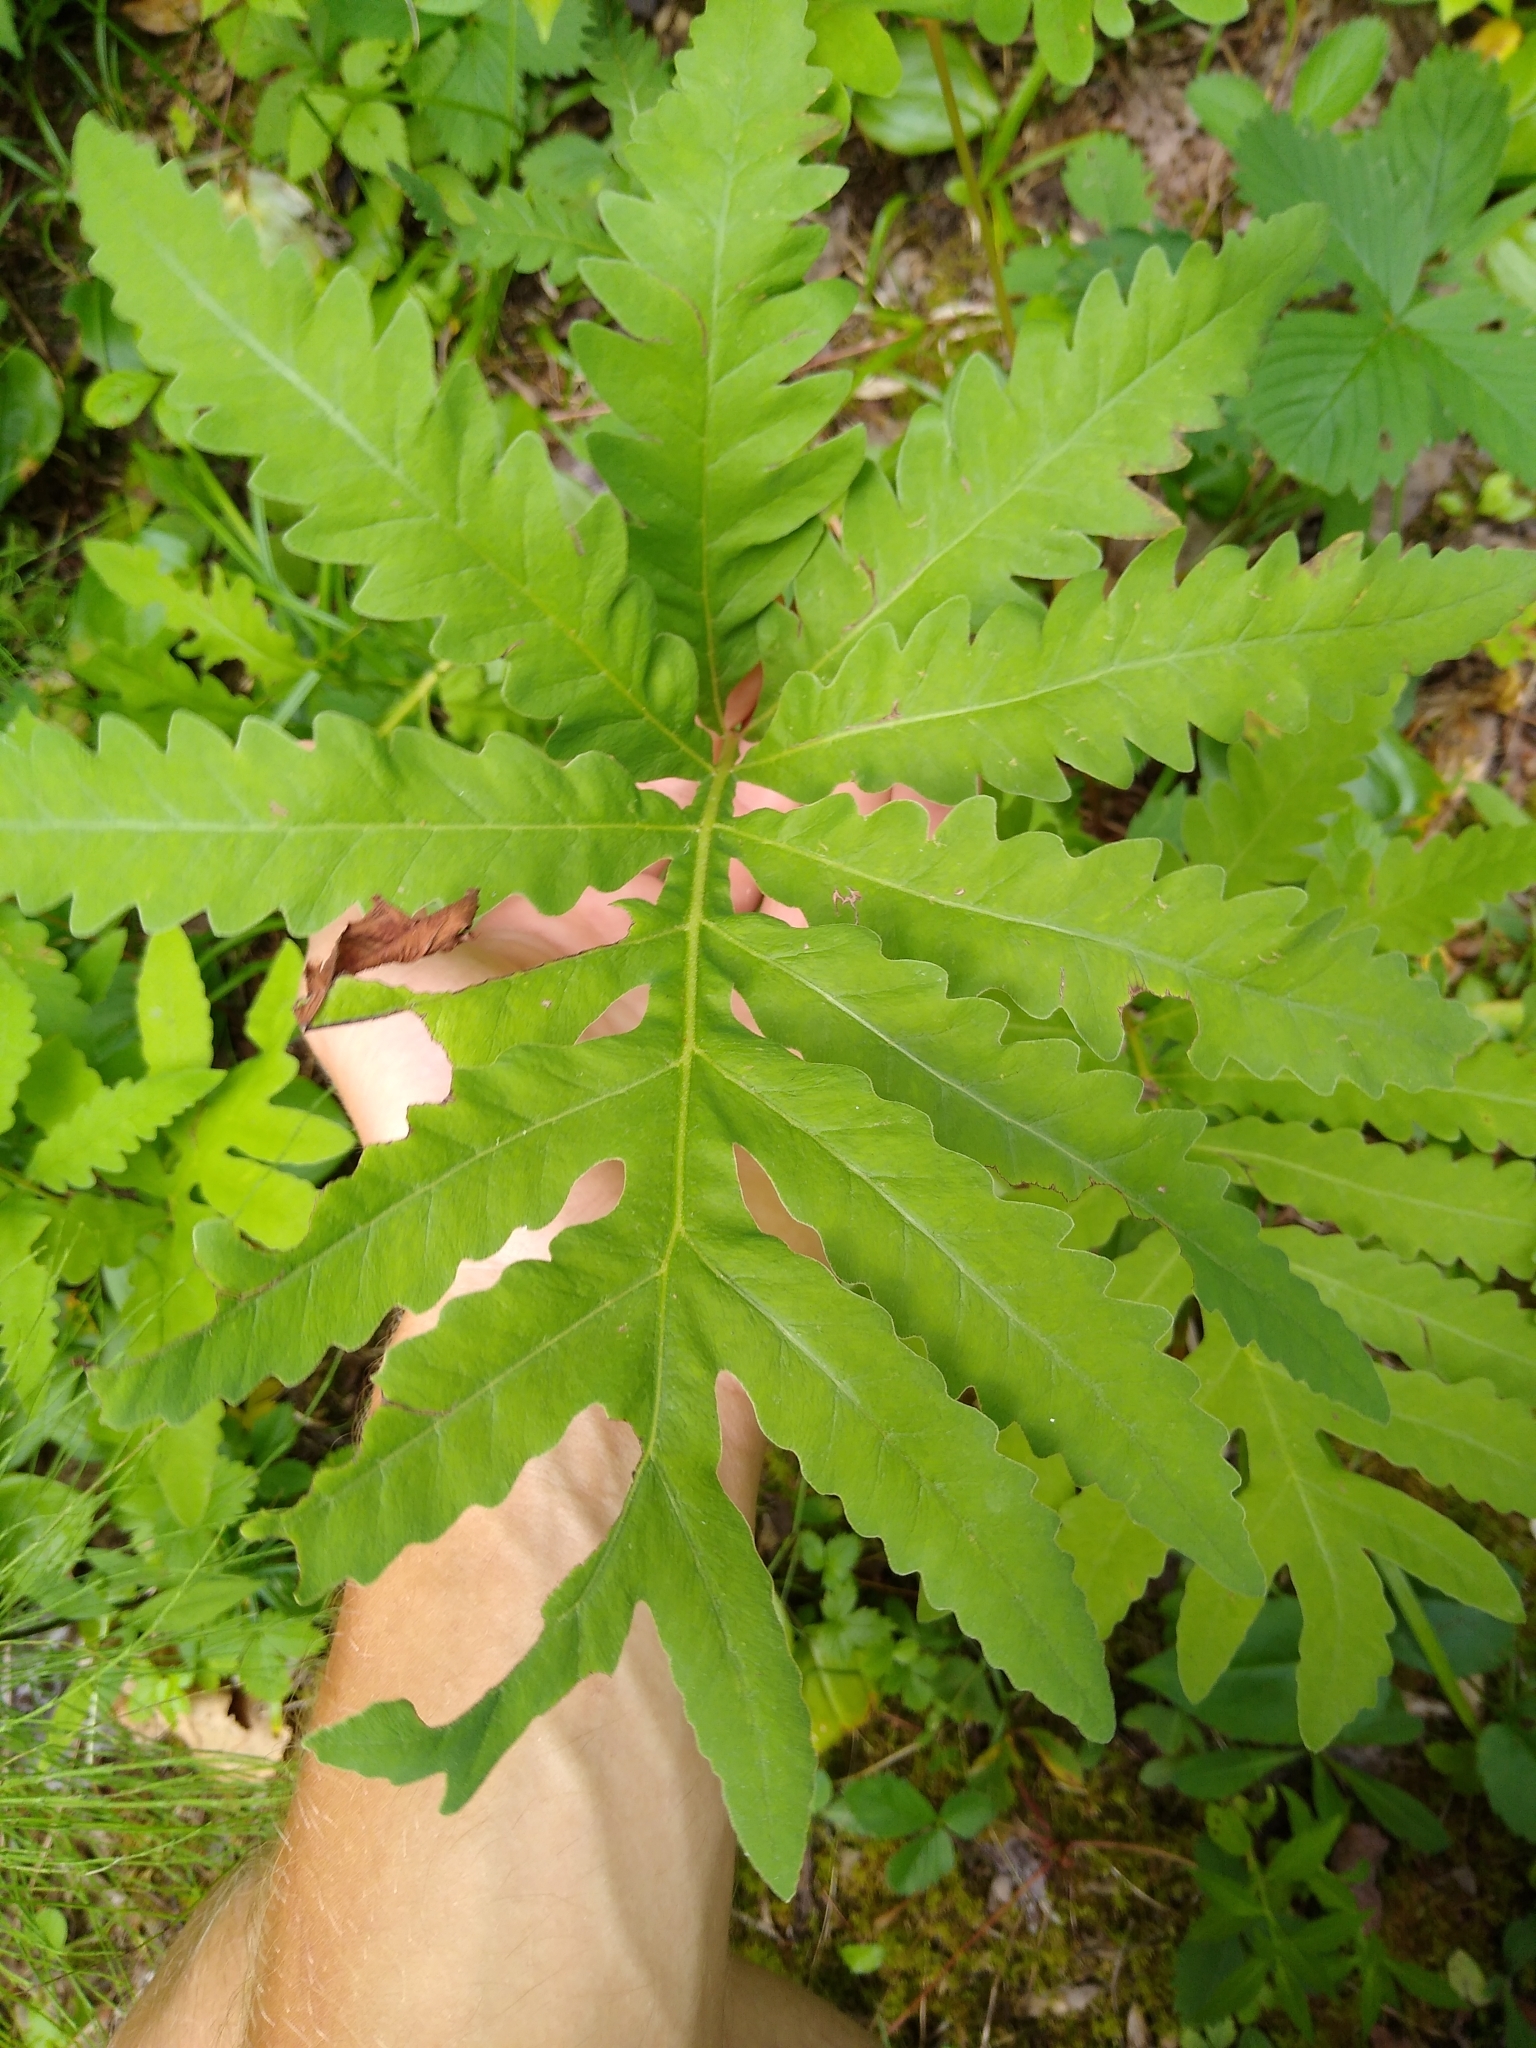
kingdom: Plantae
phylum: Tracheophyta
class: Polypodiopsida
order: Polypodiales
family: Onocleaceae
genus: Onoclea
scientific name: Onoclea sensibilis
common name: Sensitive fern
